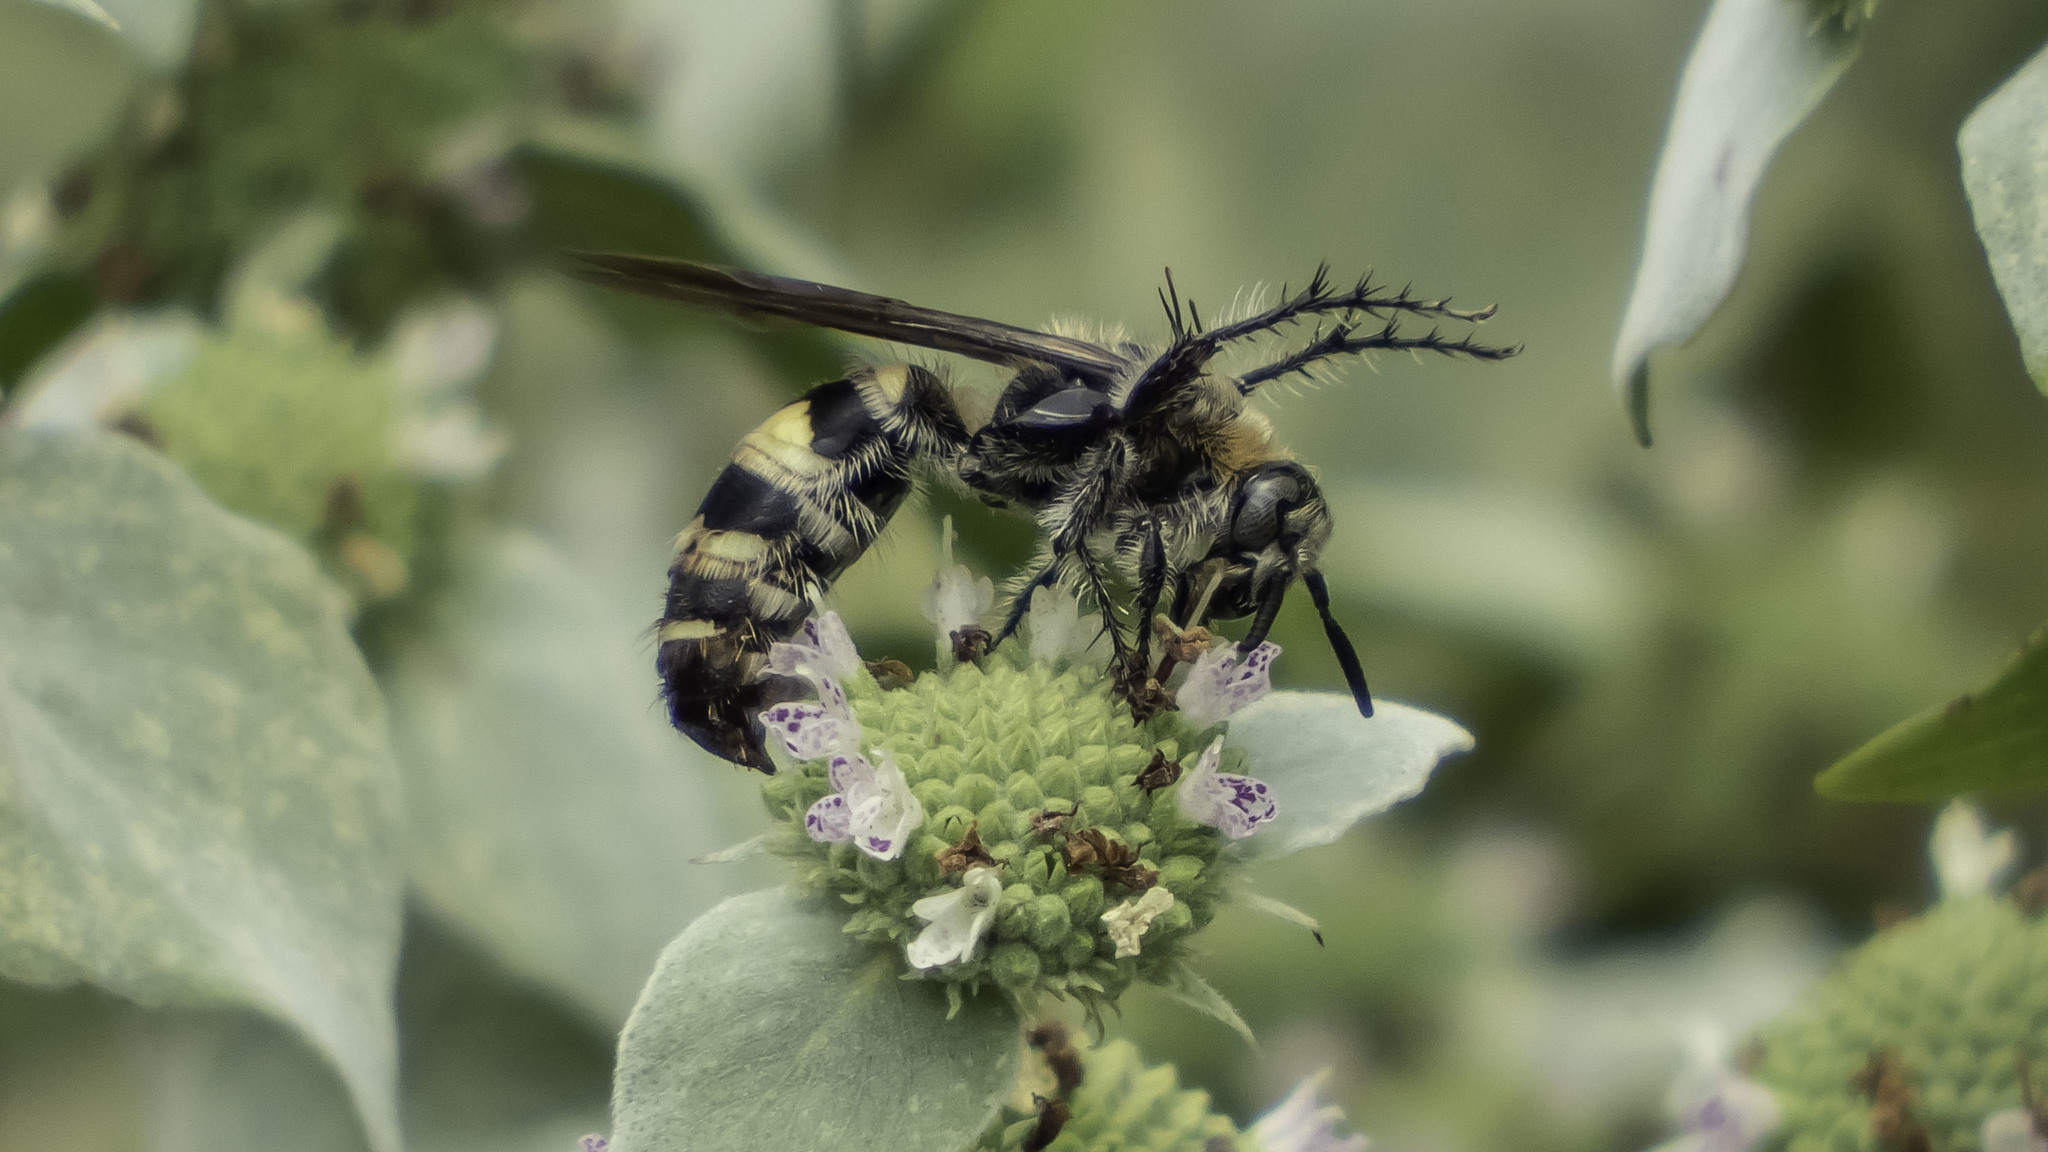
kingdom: Animalia
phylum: Arthropoda
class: Insecta
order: Hymenoptera
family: Scoliidae
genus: Dielis
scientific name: Dielis
